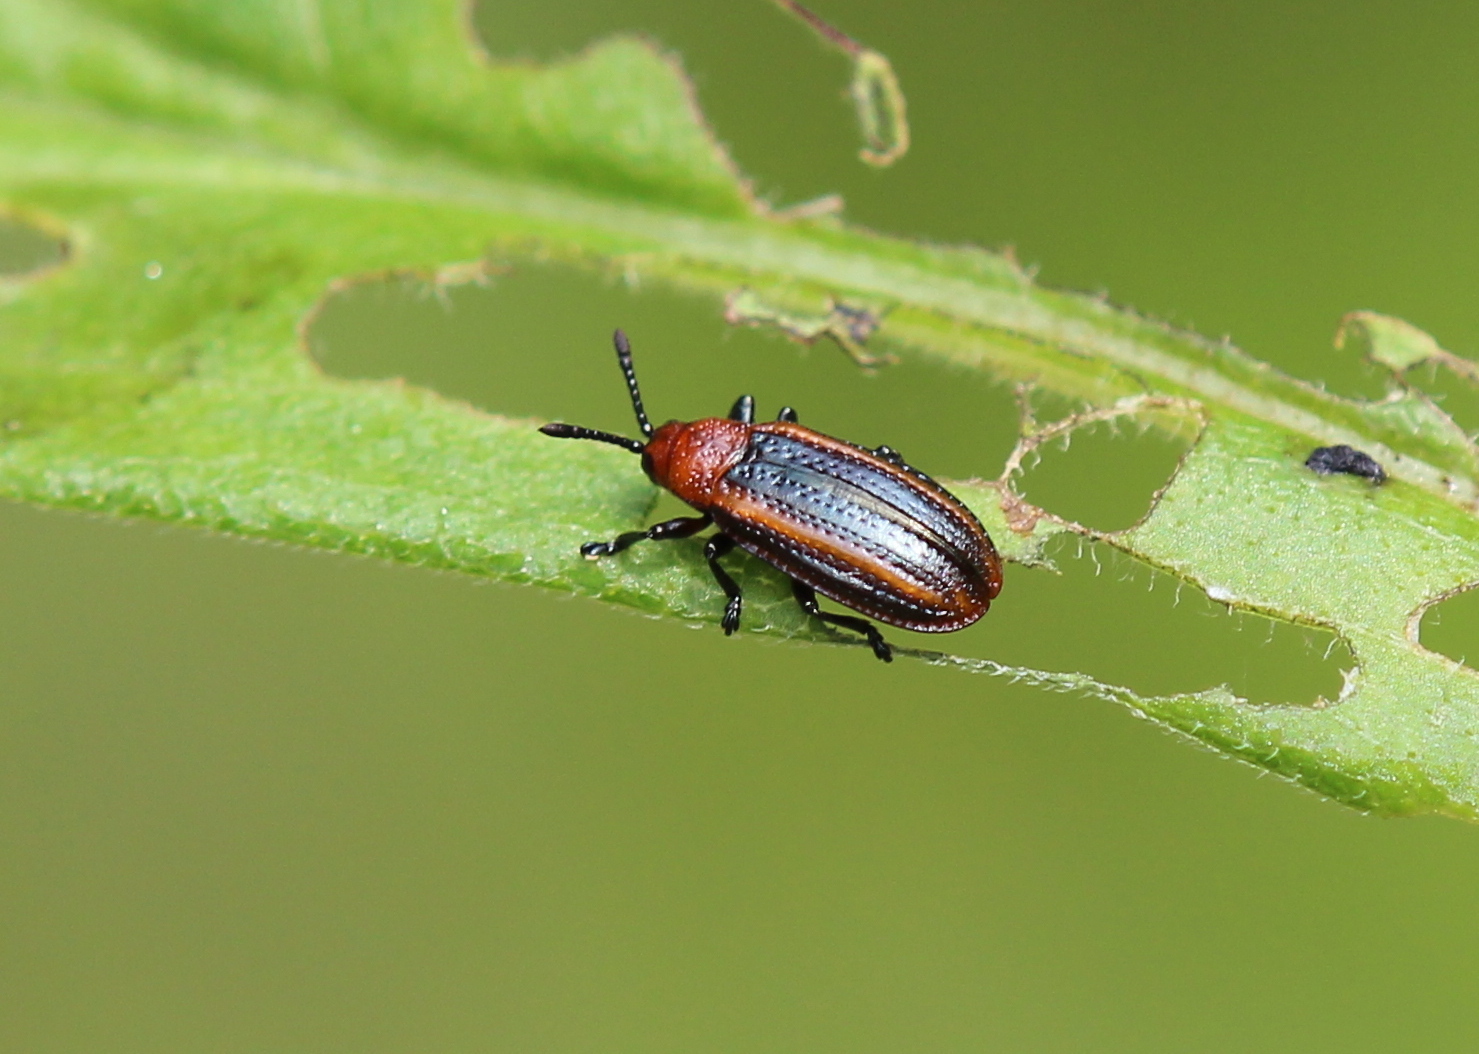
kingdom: Animalia
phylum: Arthropoda
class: Insecta
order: Coleoptera
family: Chrysomelidae
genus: Microrhopala
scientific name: Microrhopala vittata
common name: Goldenrod leaf miner beetle
